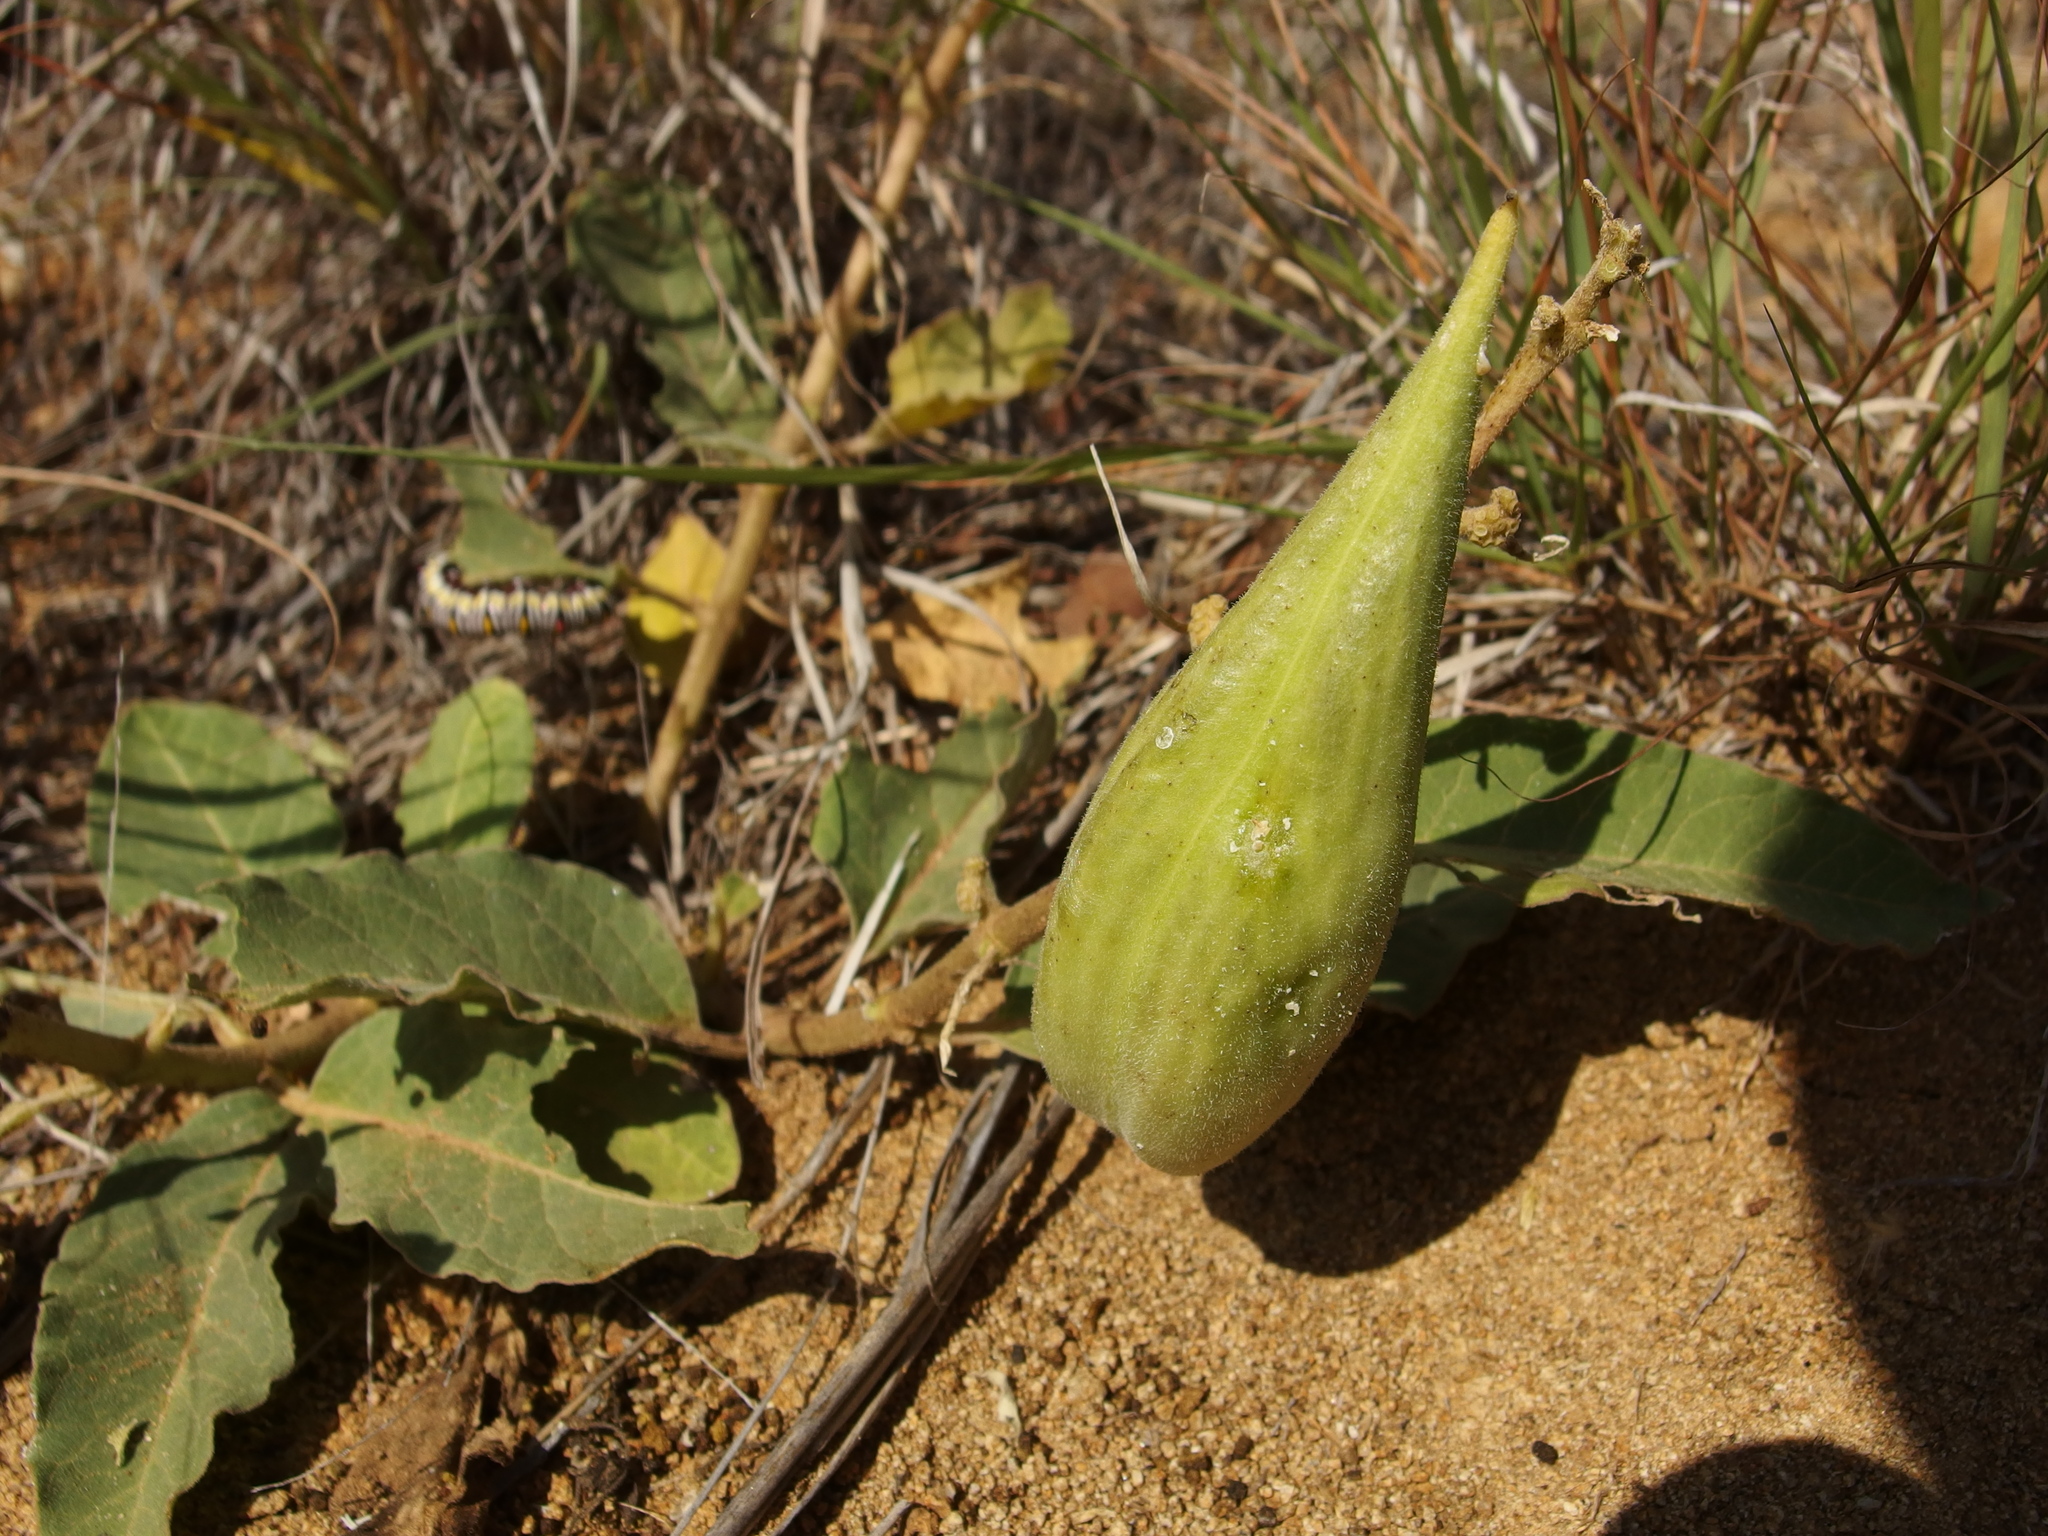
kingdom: Plantae
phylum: Tracheophyta
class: Magnoliopsida
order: Gentianales
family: Apocynaceae
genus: Asclepias
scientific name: Asclepias nyctaginifolia
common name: Mojave milkweed
